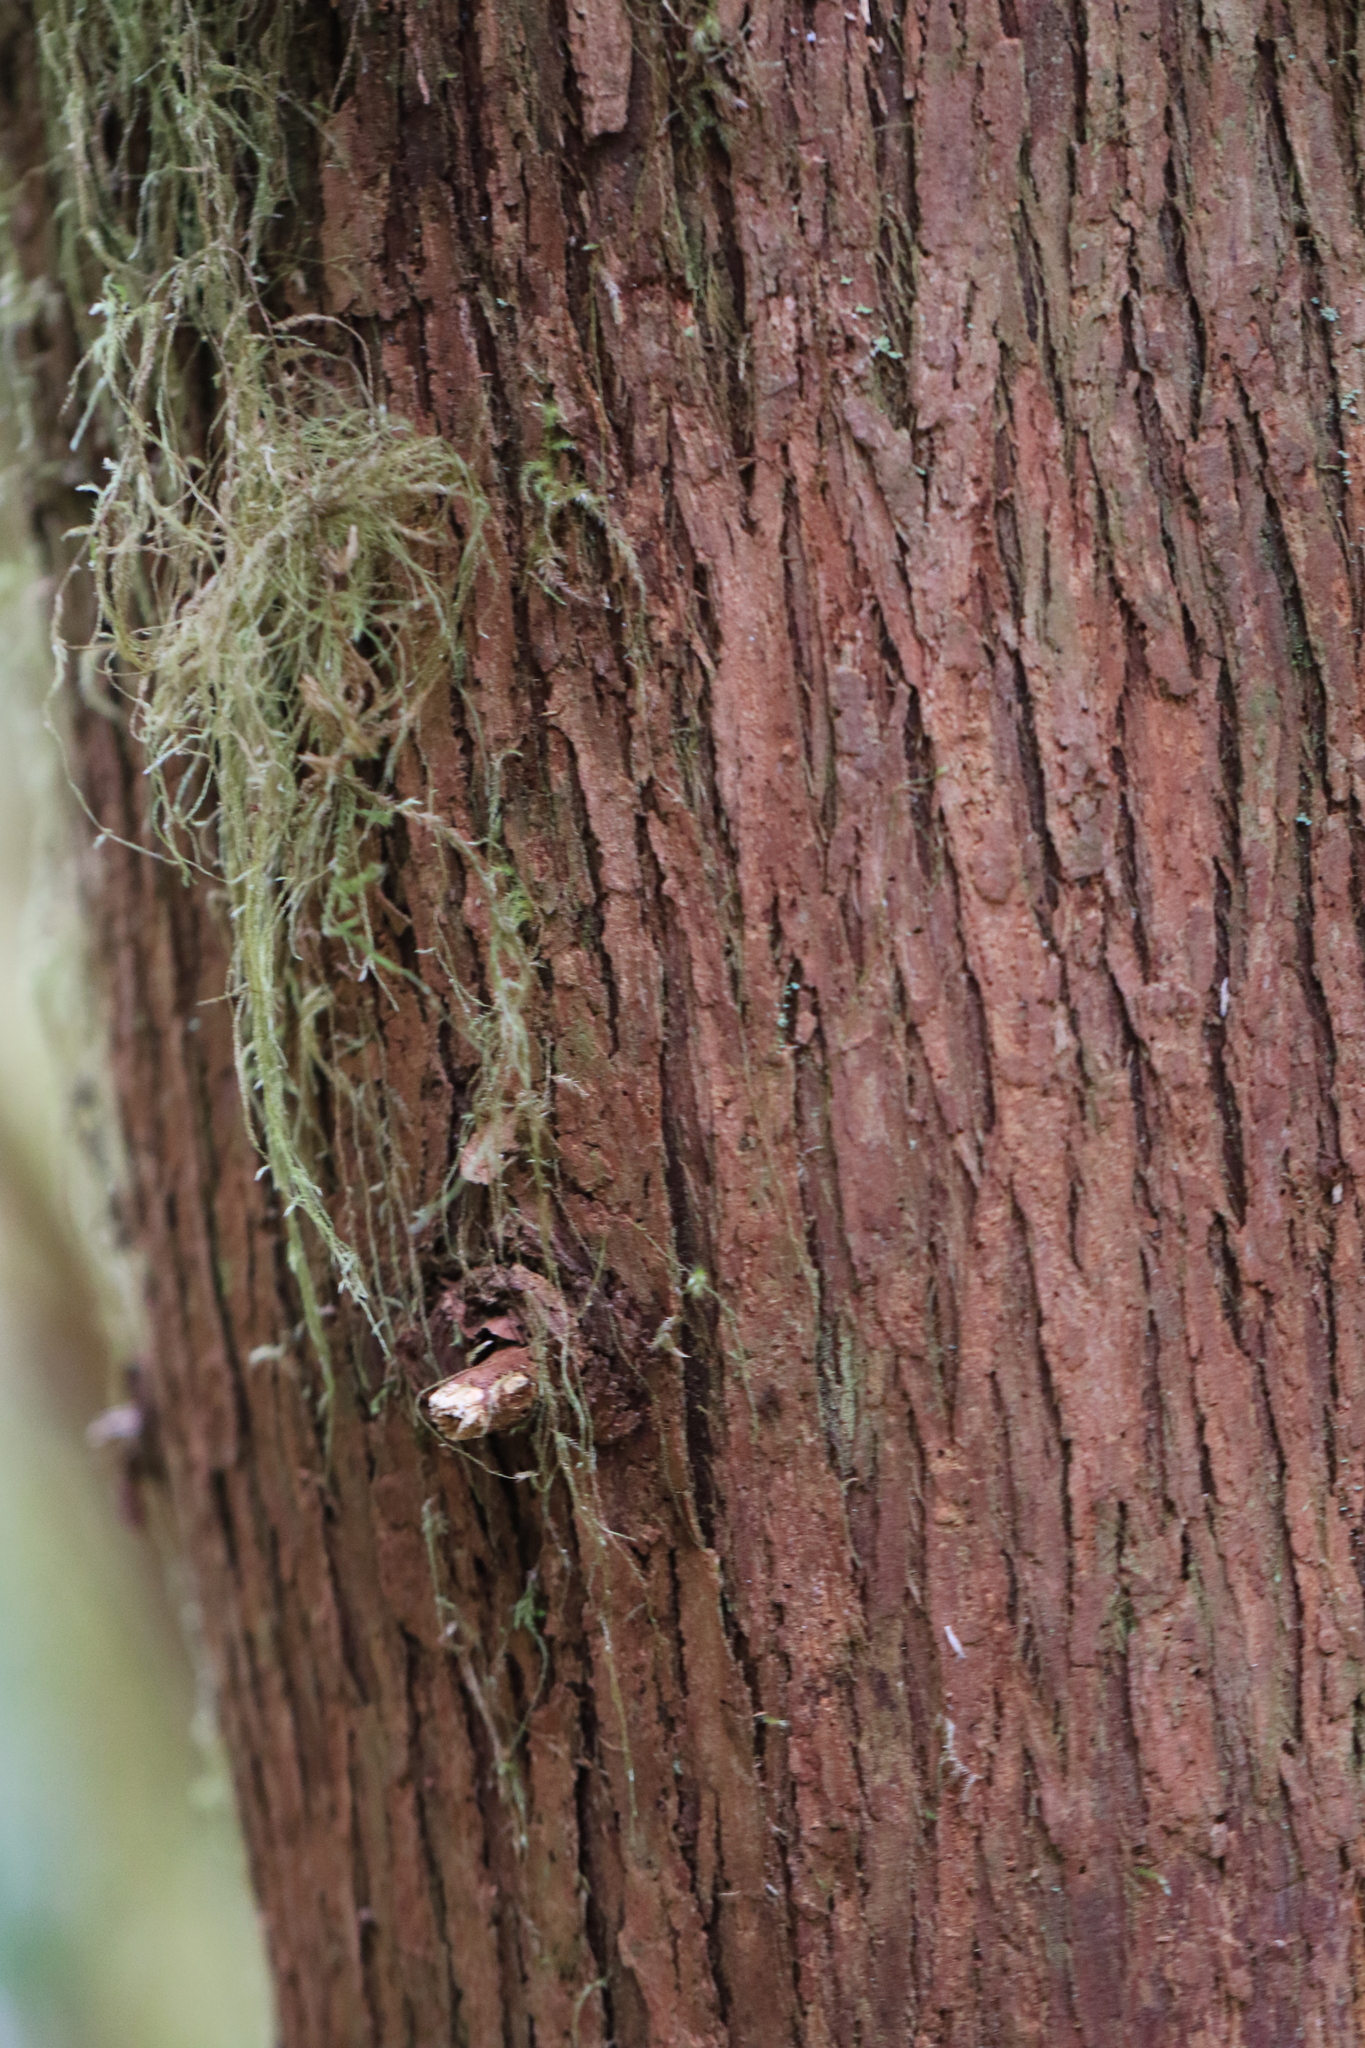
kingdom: Plantae
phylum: Tracheophyta
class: Pinopsida
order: Pinales
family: Cupressaceae
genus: Thuja
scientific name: Thuja plicata
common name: Western red-cedar
